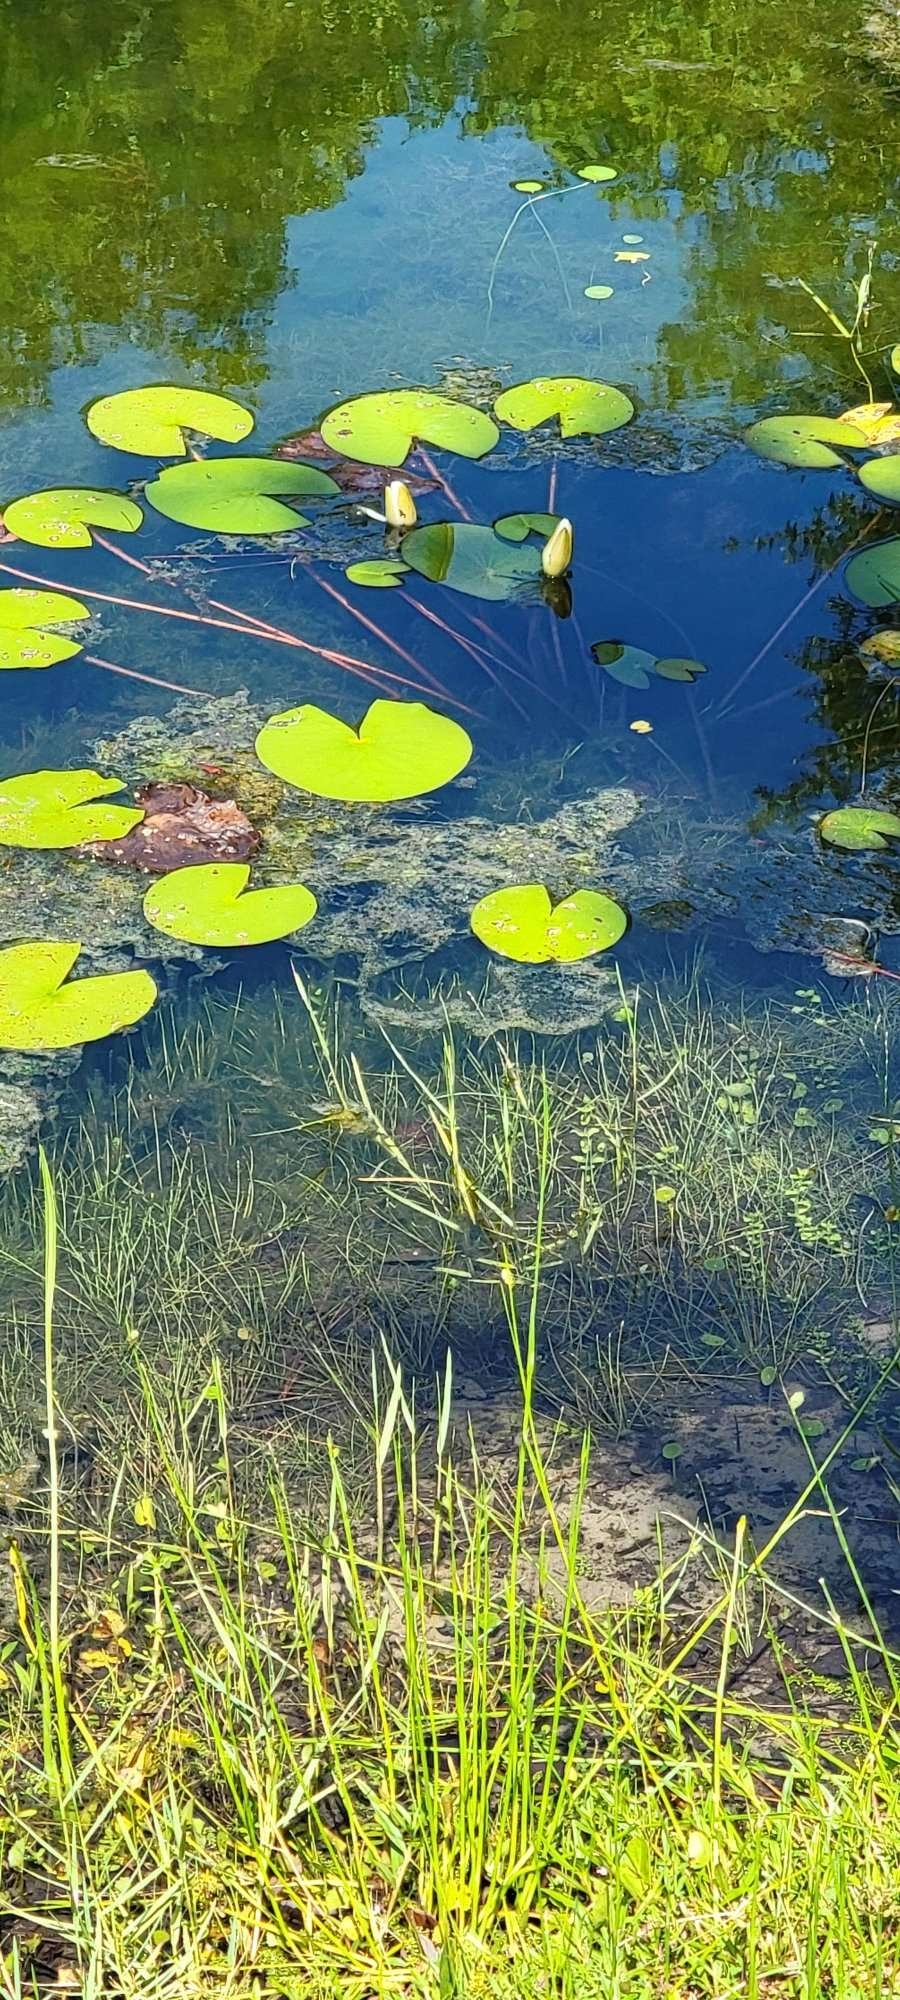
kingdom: Plantae
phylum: Tracheophyta
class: Magnoliopsida
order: Nymphaeales
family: Nymphaeaceae
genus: Nymphaea
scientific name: Nymphaea odorata
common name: Fragrant water-lily
